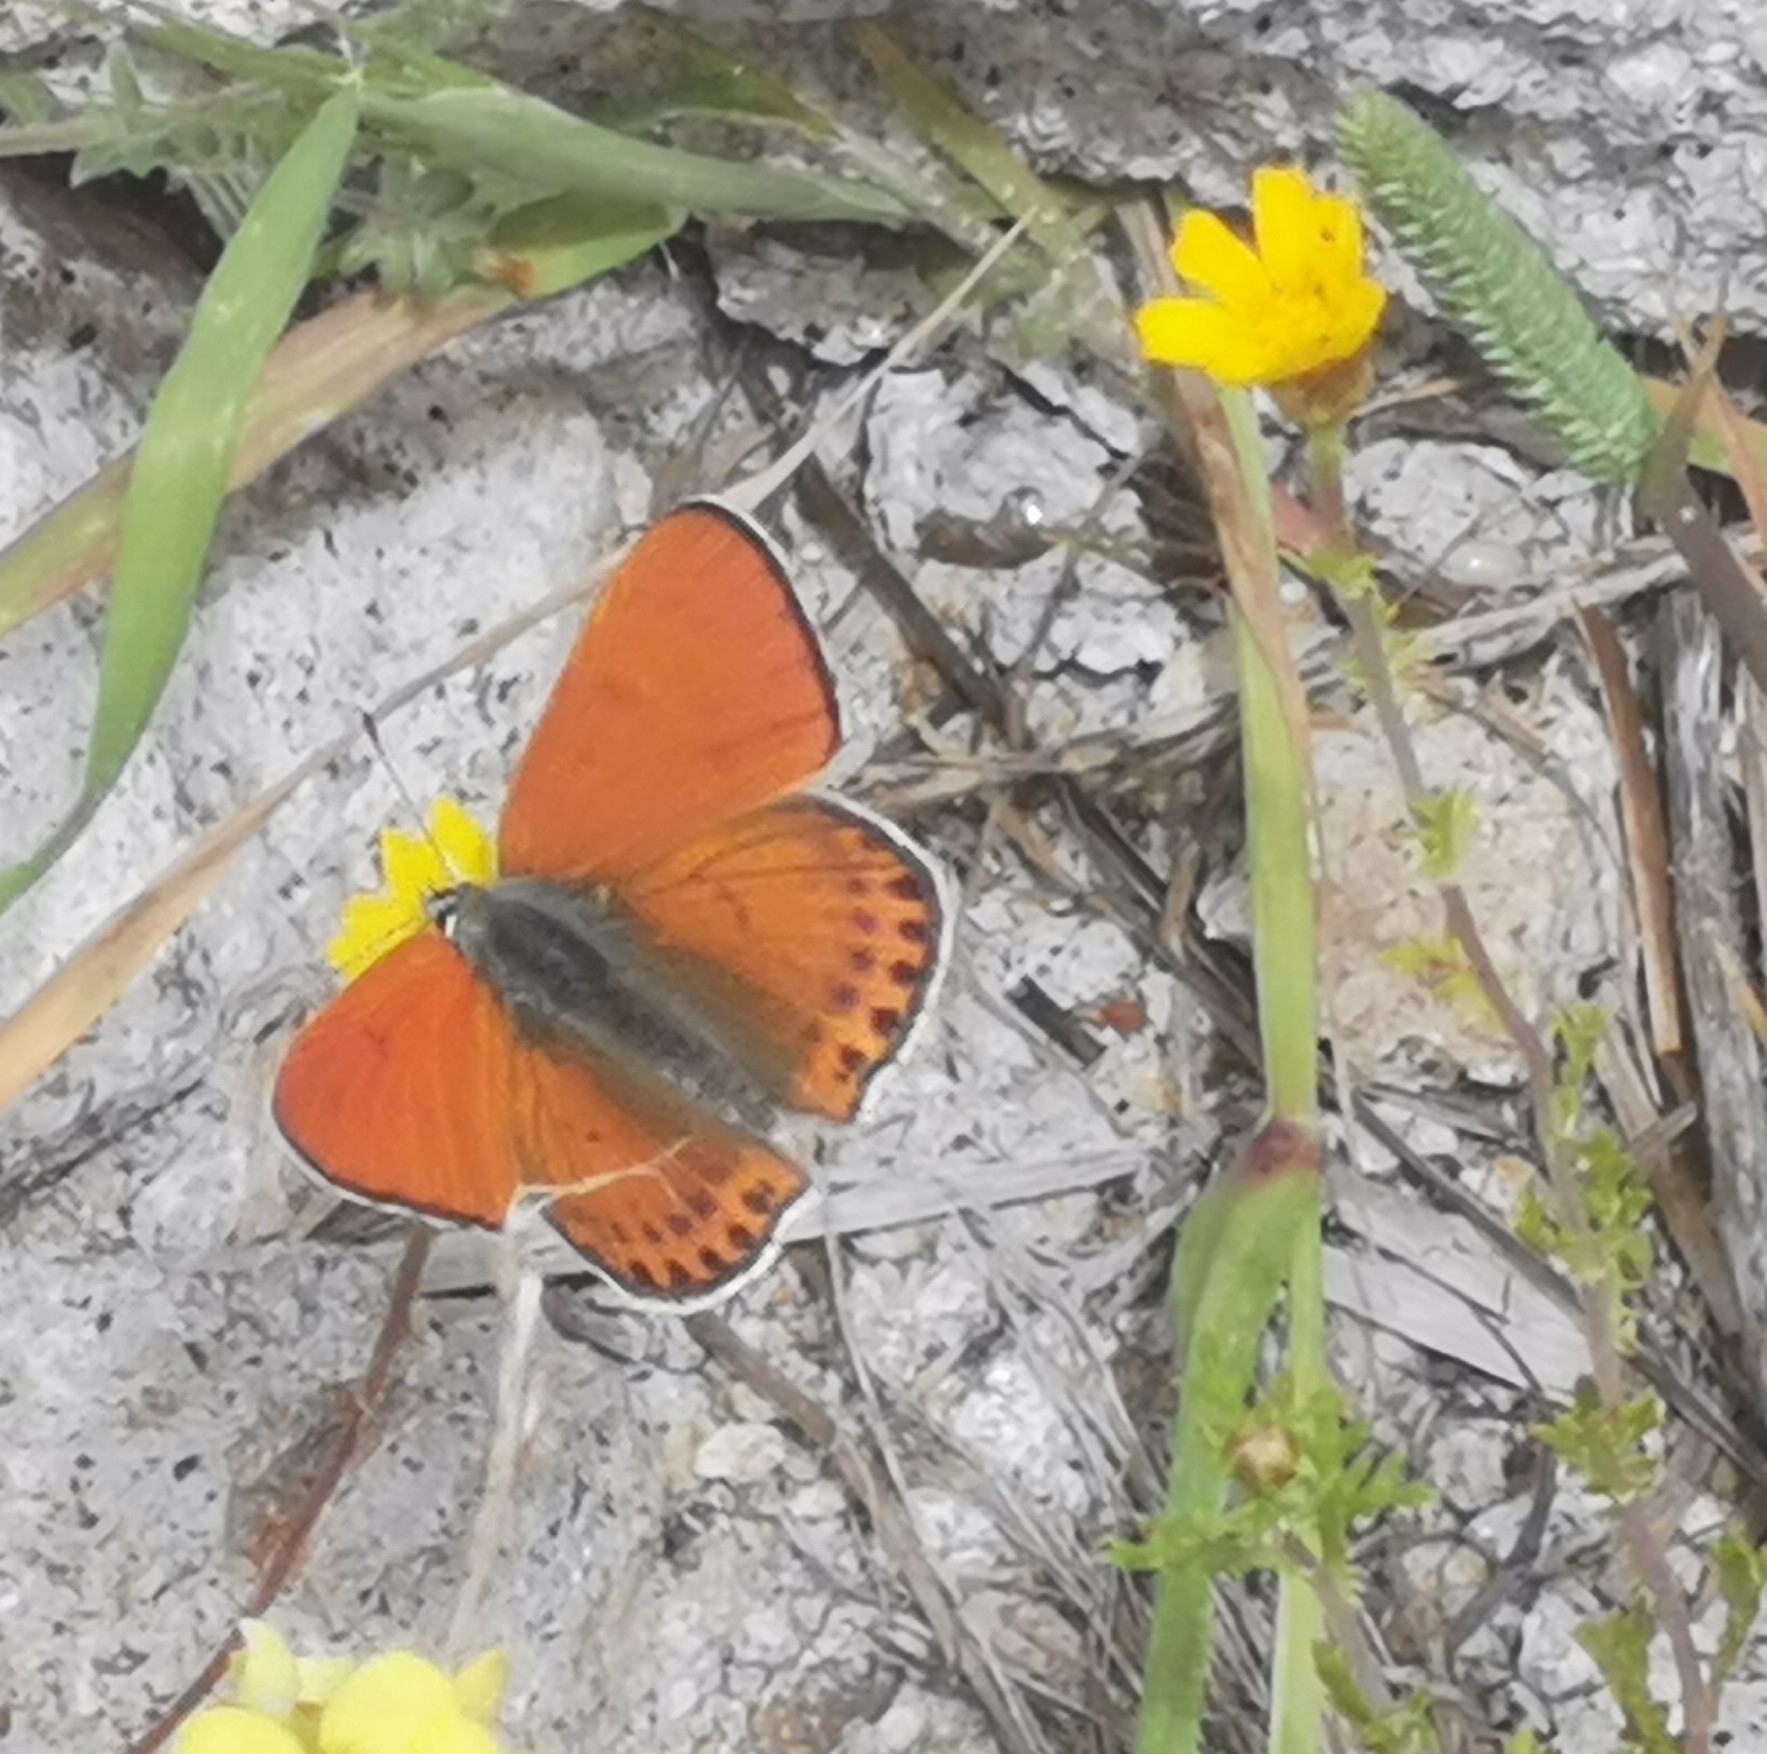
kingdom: Animalia
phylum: Arthropoda
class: Insecta
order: Lepidoptera
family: Lycaenidae
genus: Thersamonia
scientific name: Thersamonia thersamon
